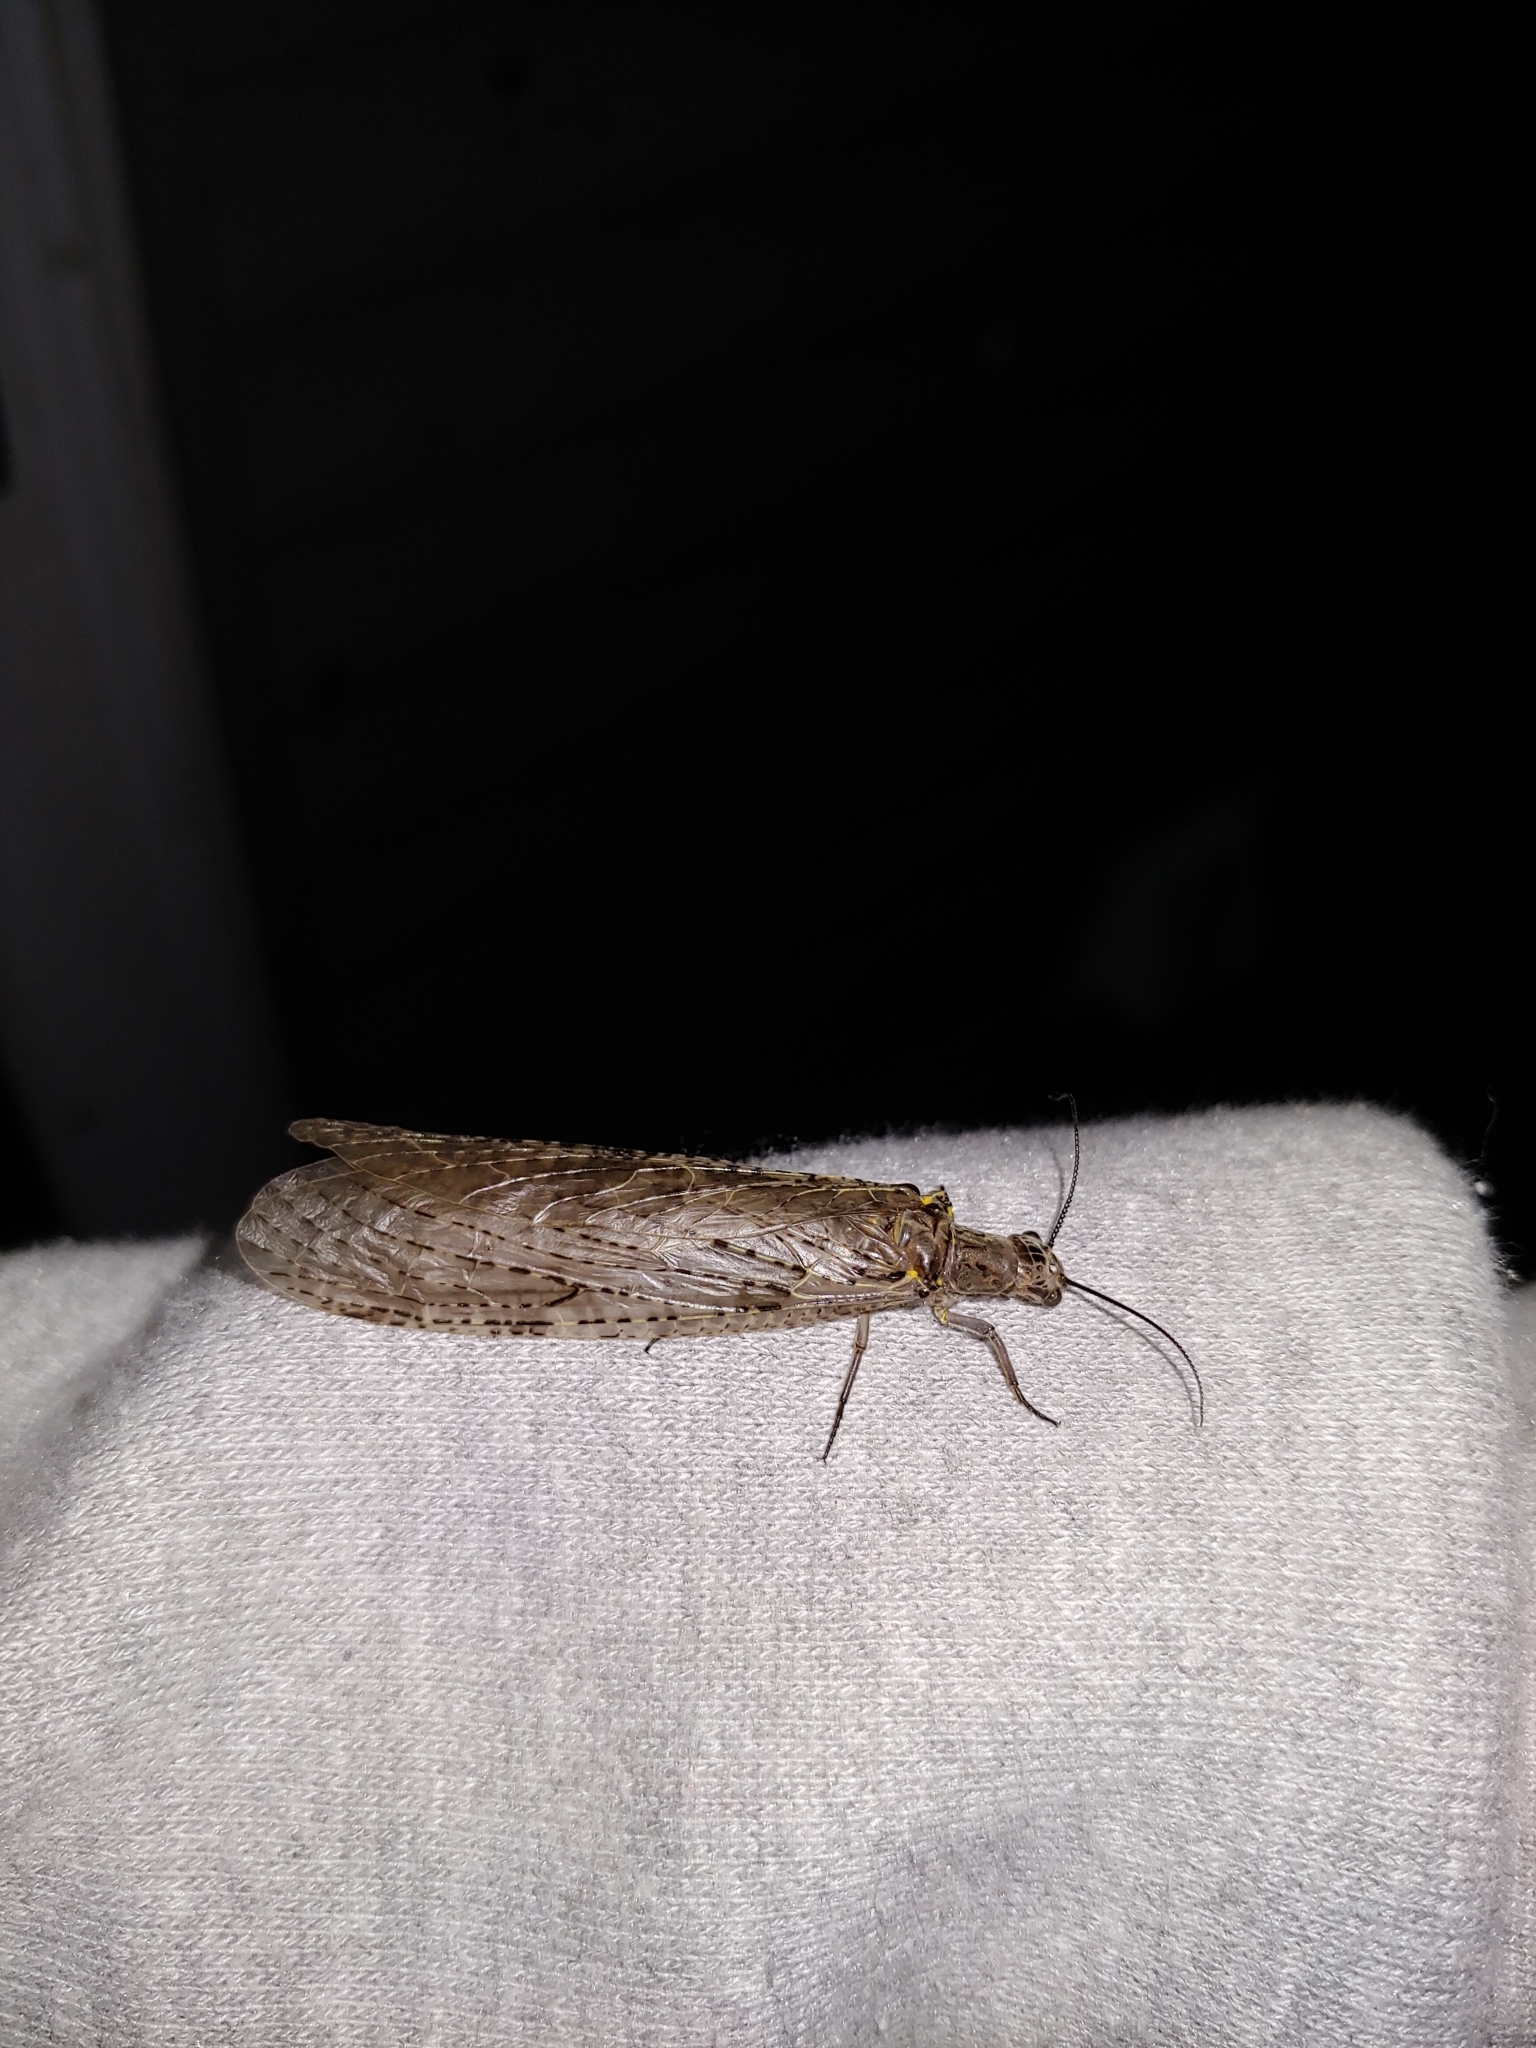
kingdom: Animalia
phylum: Arthropoda
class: Insecta
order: Megaloptera
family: Corydalidae
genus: Chauliodes
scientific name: Chauliodes rastricornis
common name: Spring fishfly
